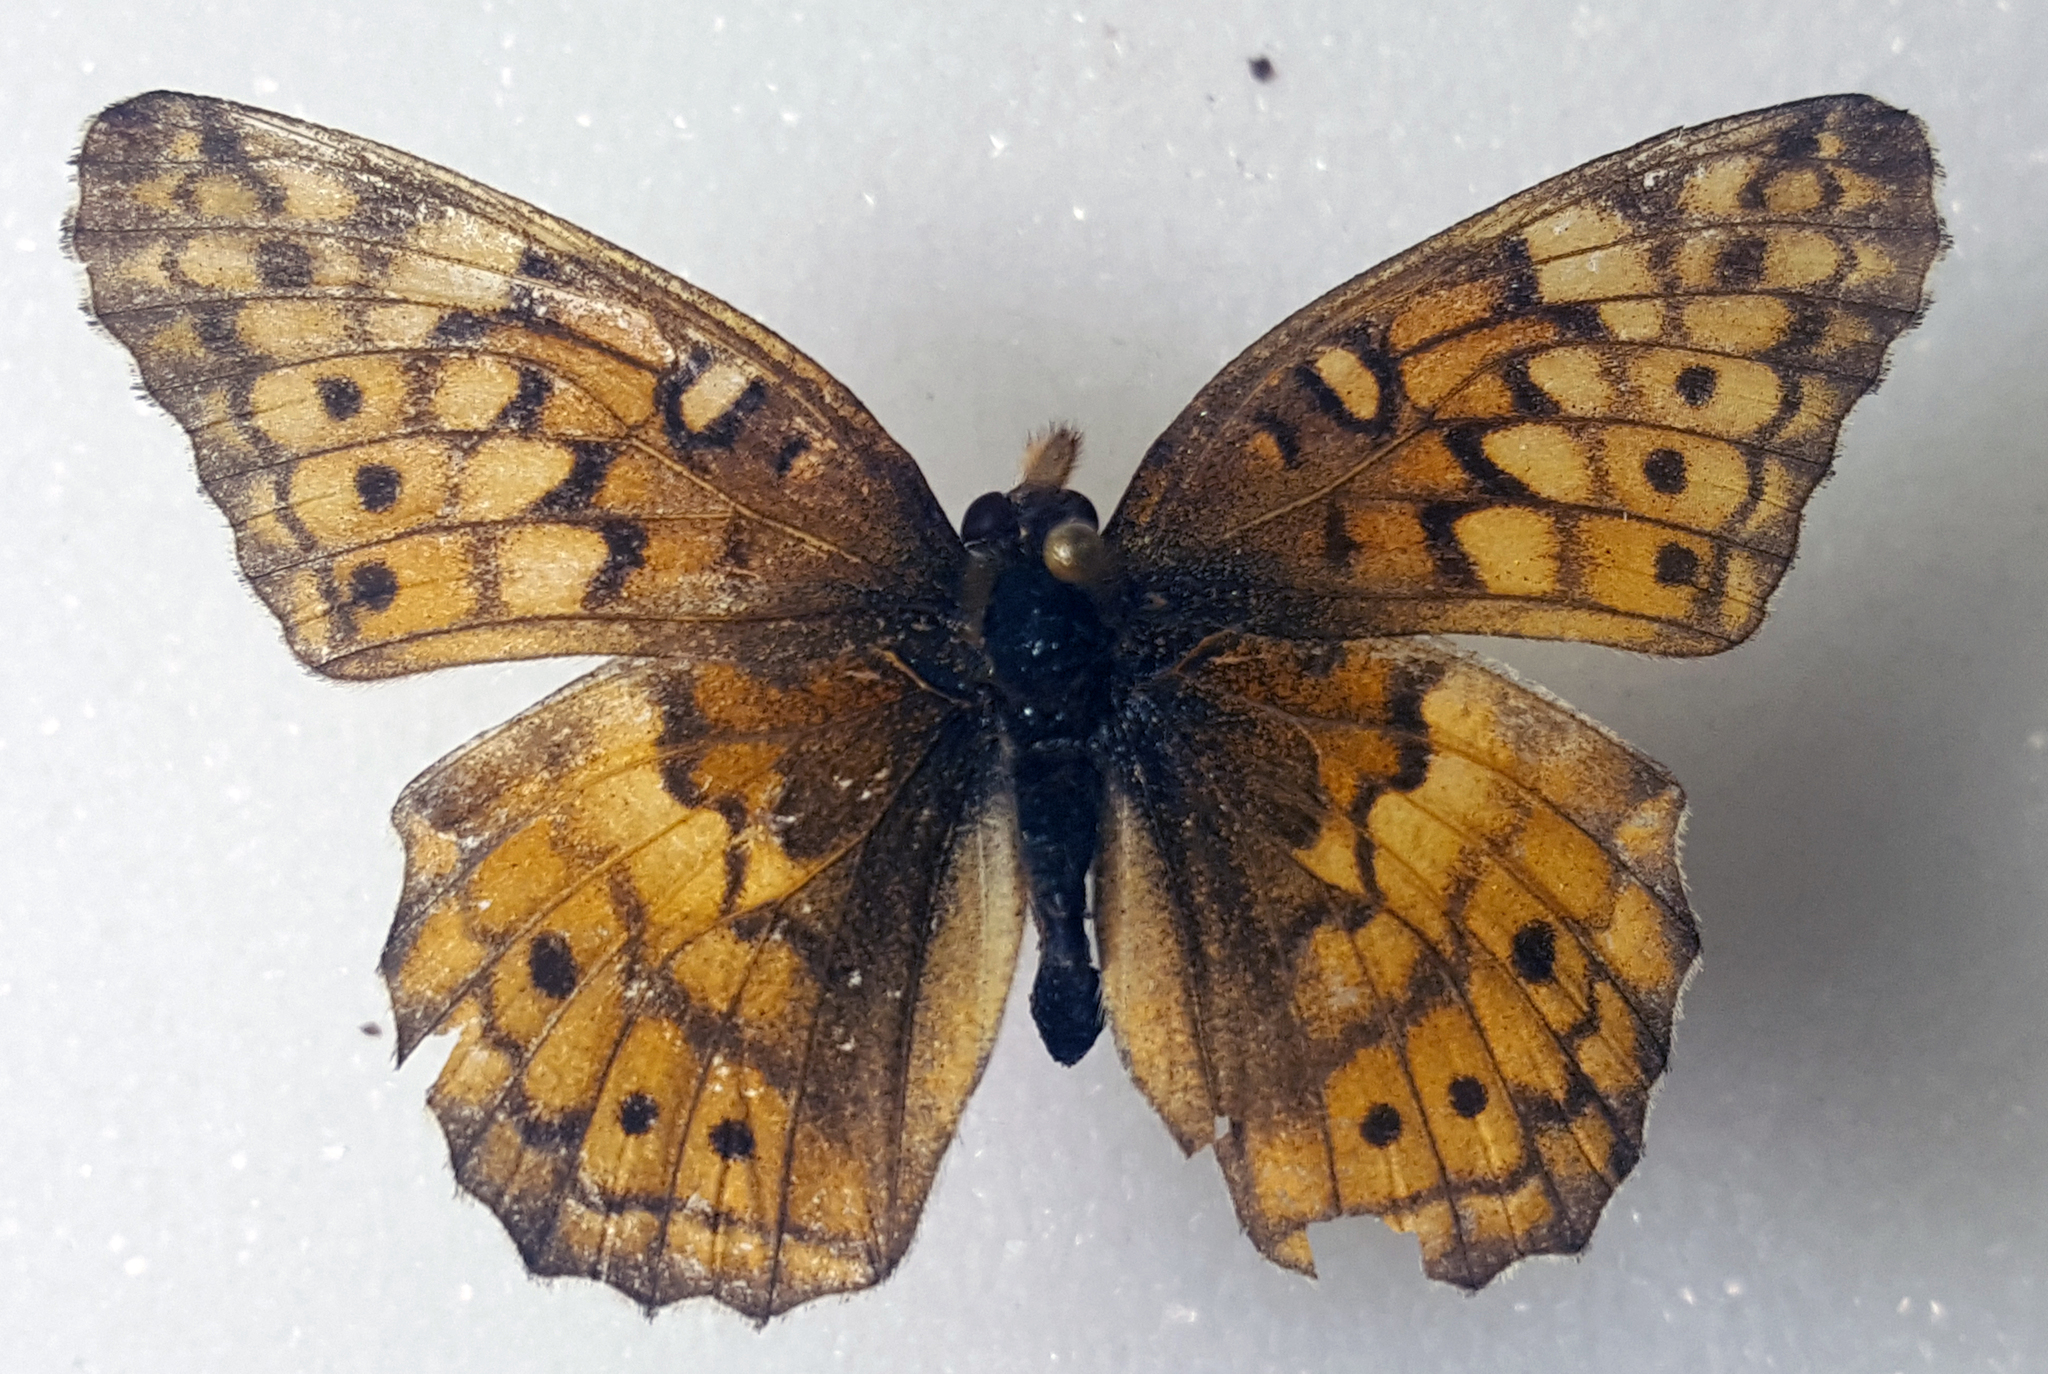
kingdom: Animalia
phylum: Arthropoda
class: Insecta
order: Lepidoptera
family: Nymphalidae
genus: Euptoieta
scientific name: Euptoieta claudia
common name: Variegated fritillary
